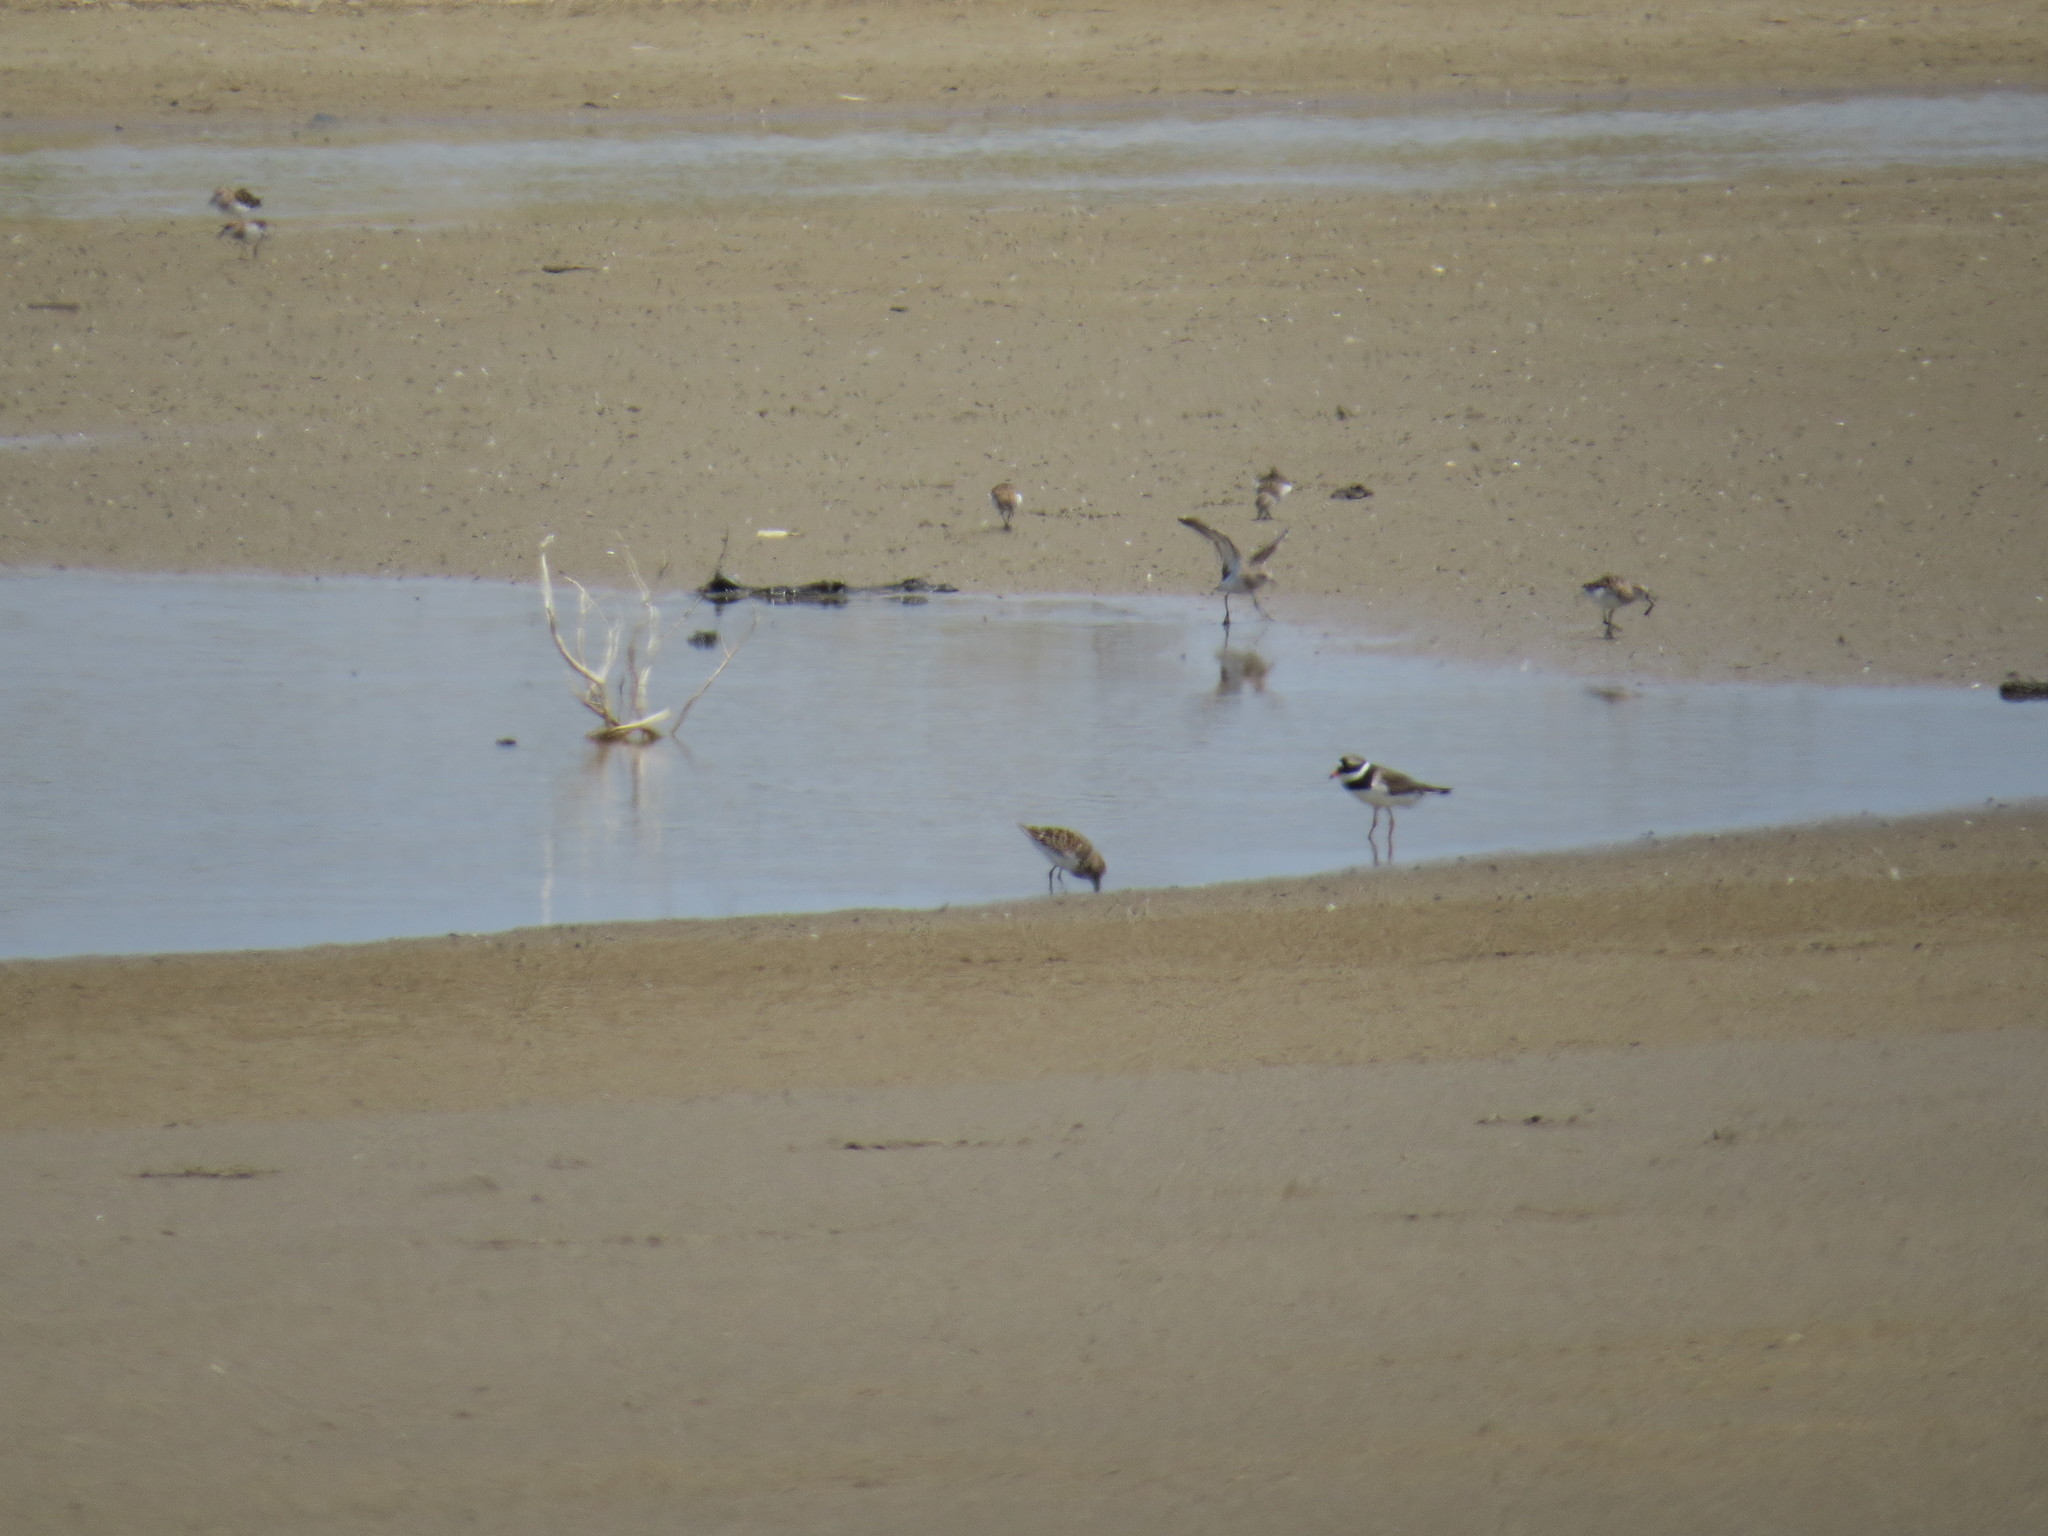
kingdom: Animalia
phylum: Chordata
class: Aves
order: Charadriiformes
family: Charadriidae
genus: Charadrius
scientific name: Charadrius hiaticula
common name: Common ringed plover
